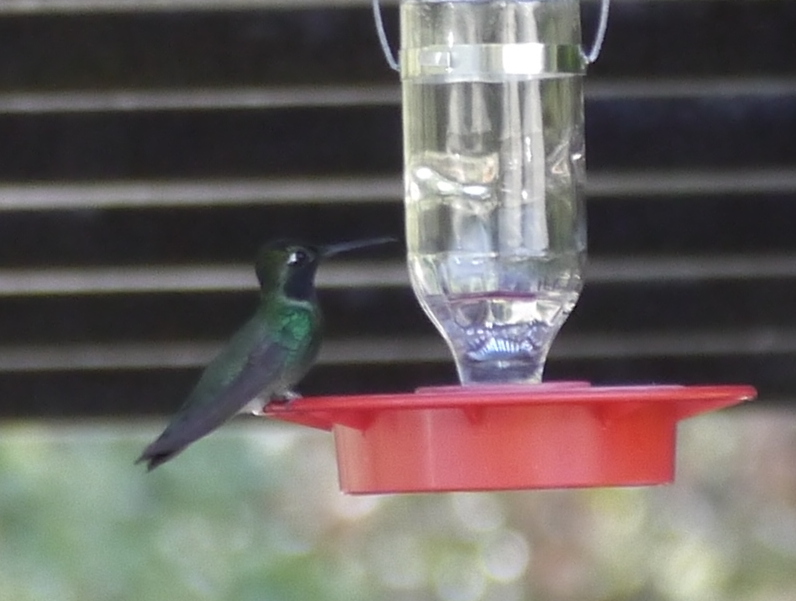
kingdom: Animalia
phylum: Chordata
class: Aves
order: Apodiformes
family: Trochilidae
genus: Eugenes
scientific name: Eugenes fulgens
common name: Magnificent hummingbird
